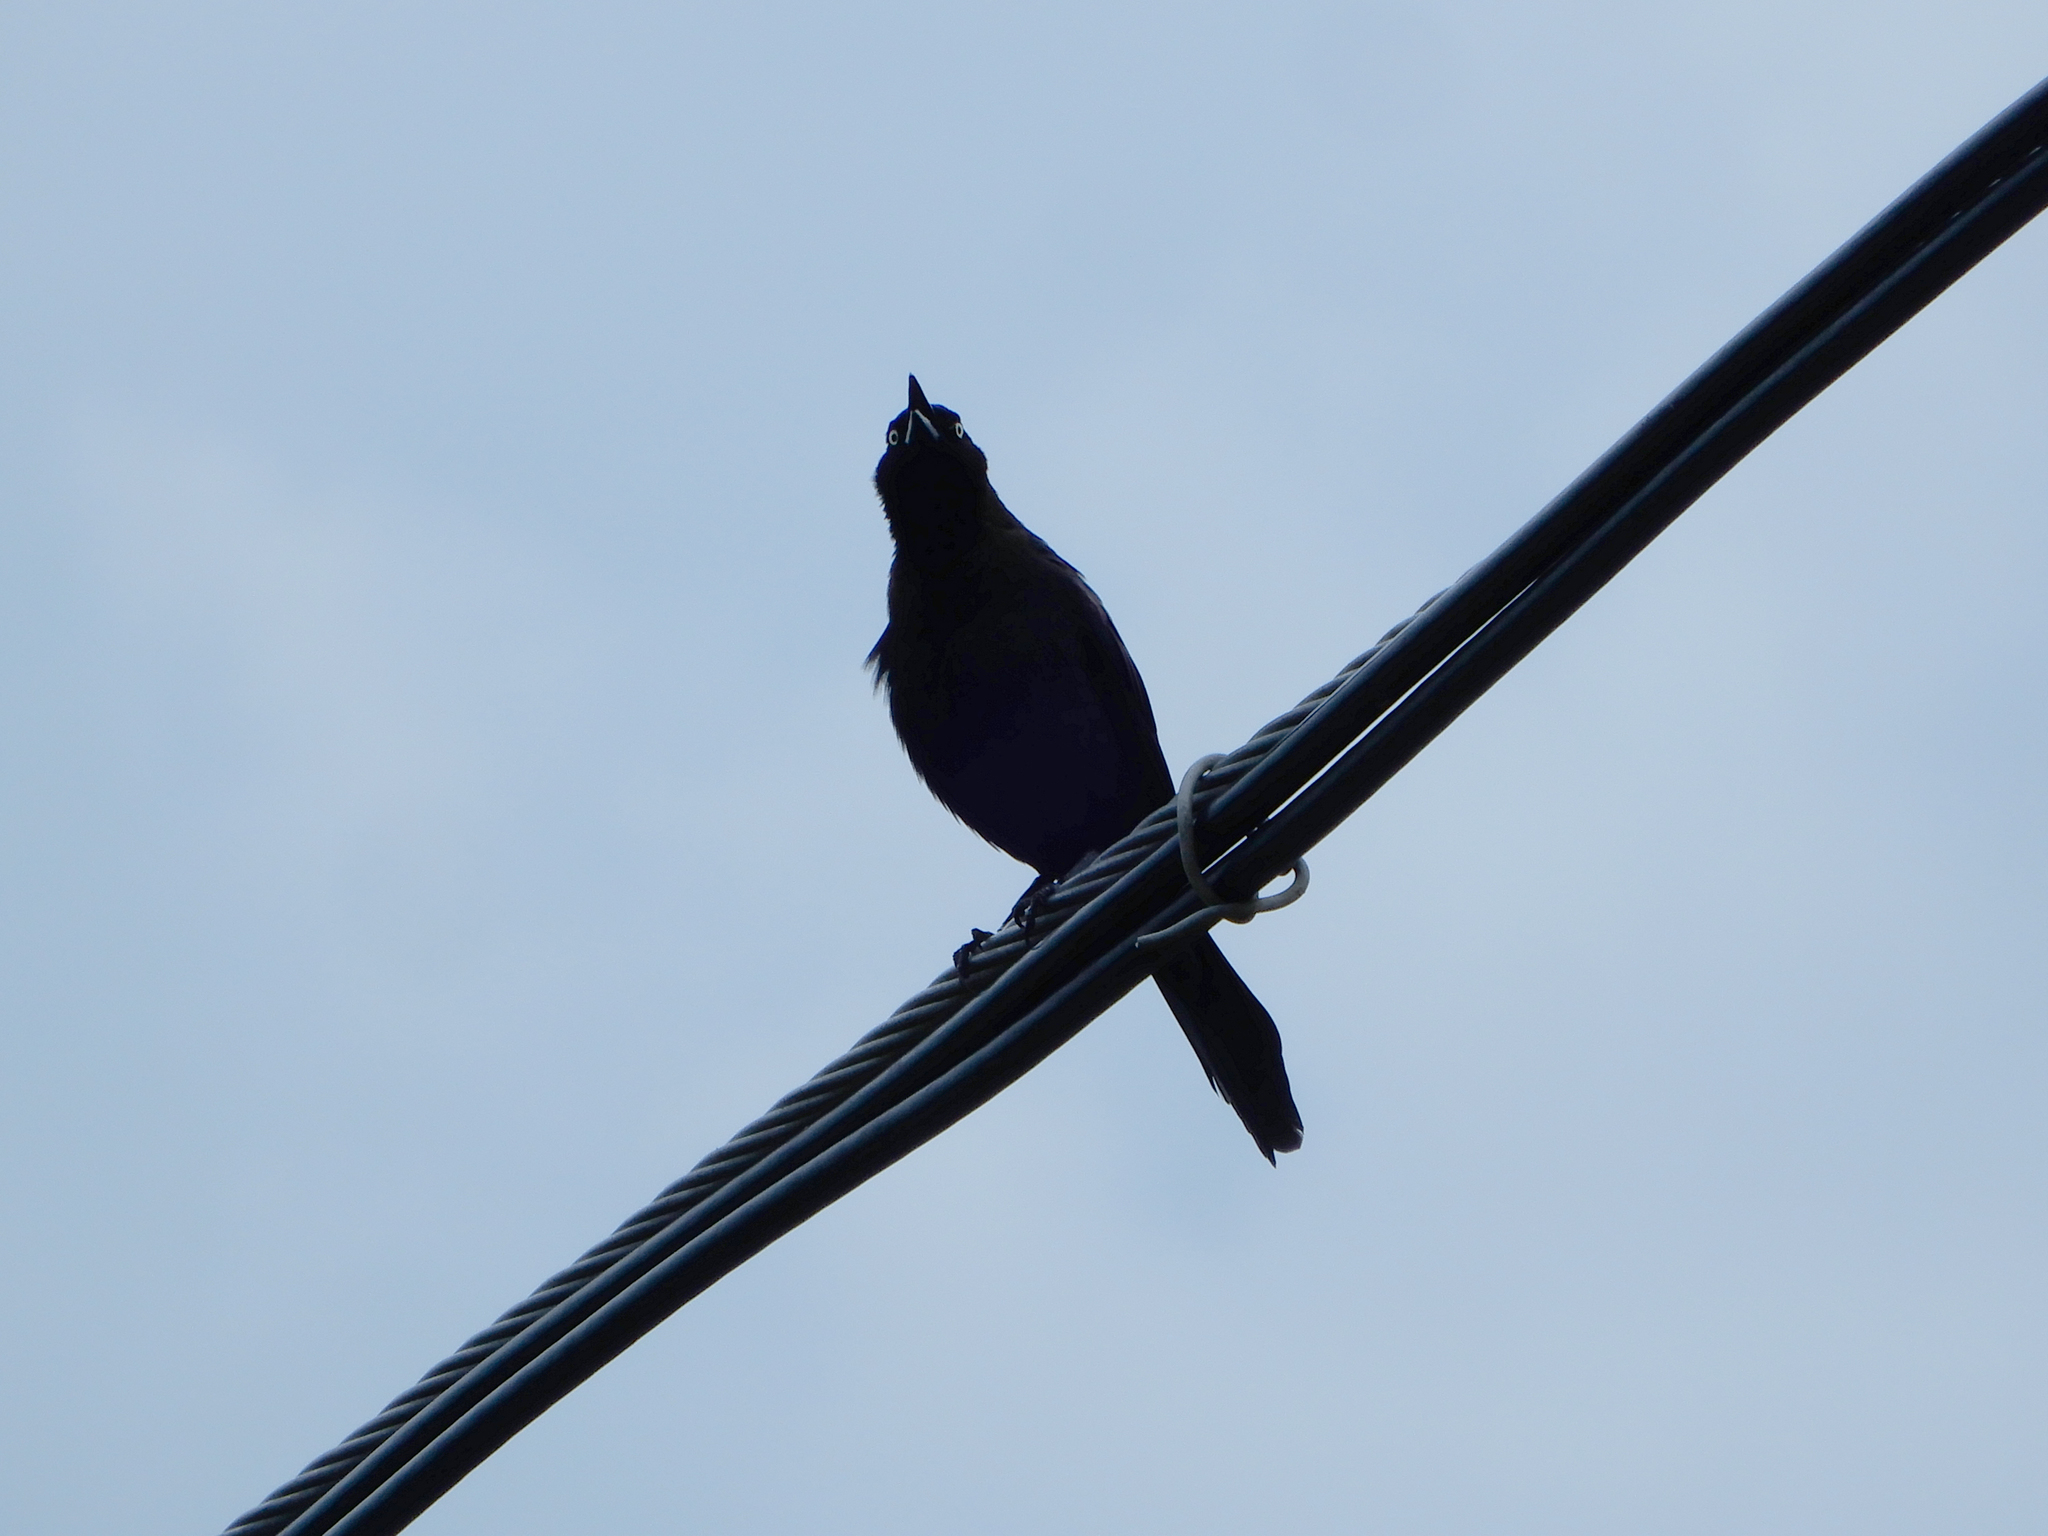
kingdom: Animalia
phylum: Chordata
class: Aves
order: Passeriformes
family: Icteridae
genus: Quiscalus
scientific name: Quiscalus quiscula
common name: Common grackle
